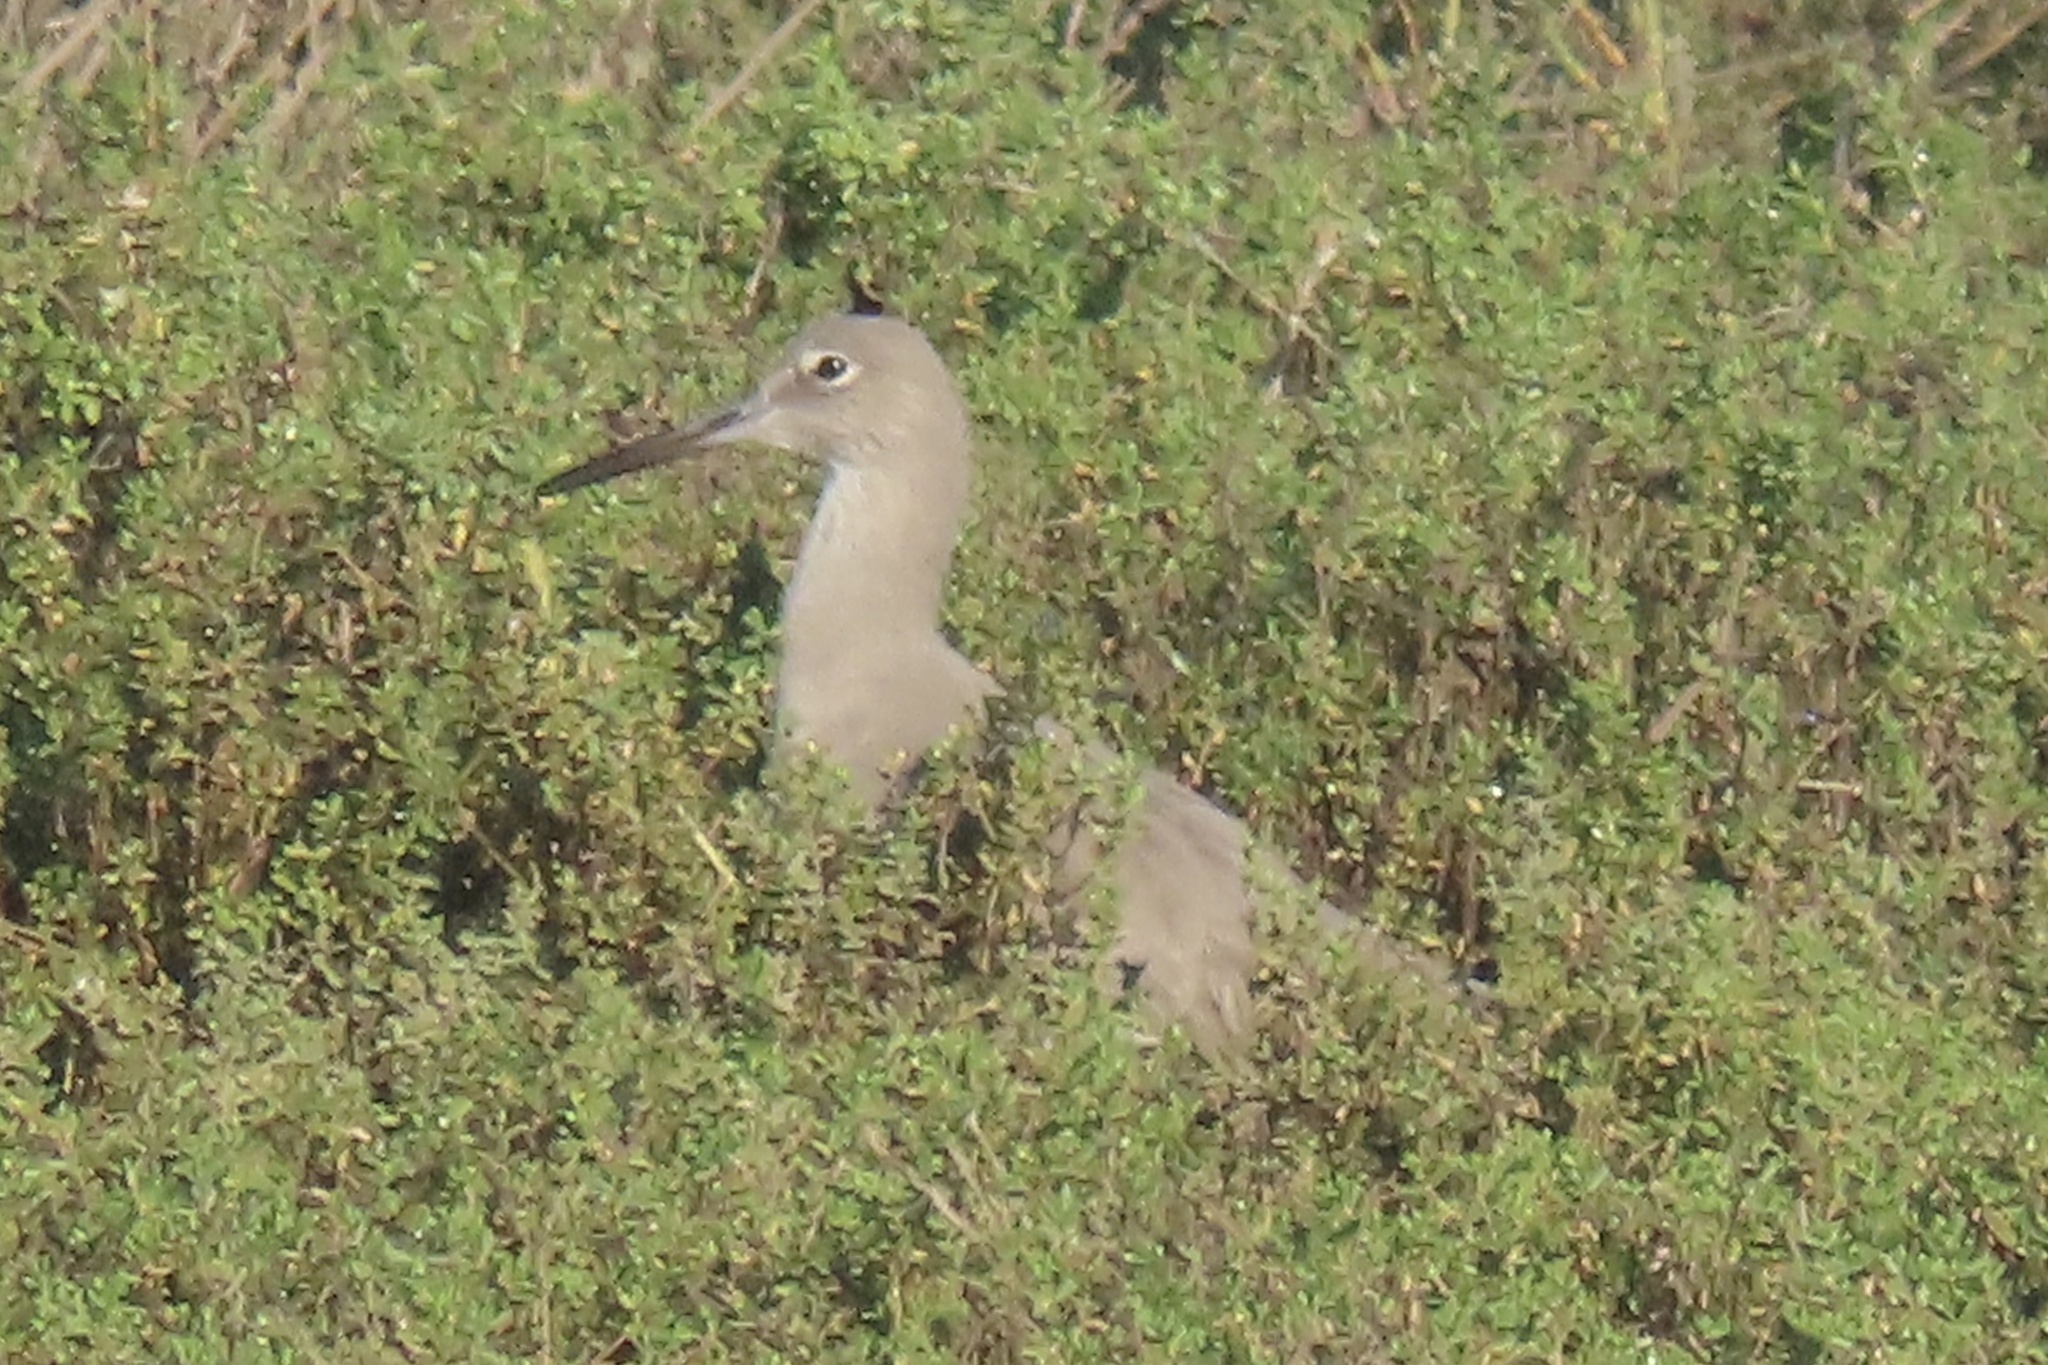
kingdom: Animalia
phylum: Chordata
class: Aves
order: Charadriiformes
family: Scolopacidae
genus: Tringa
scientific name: Tringa semipalmata
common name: Willet
